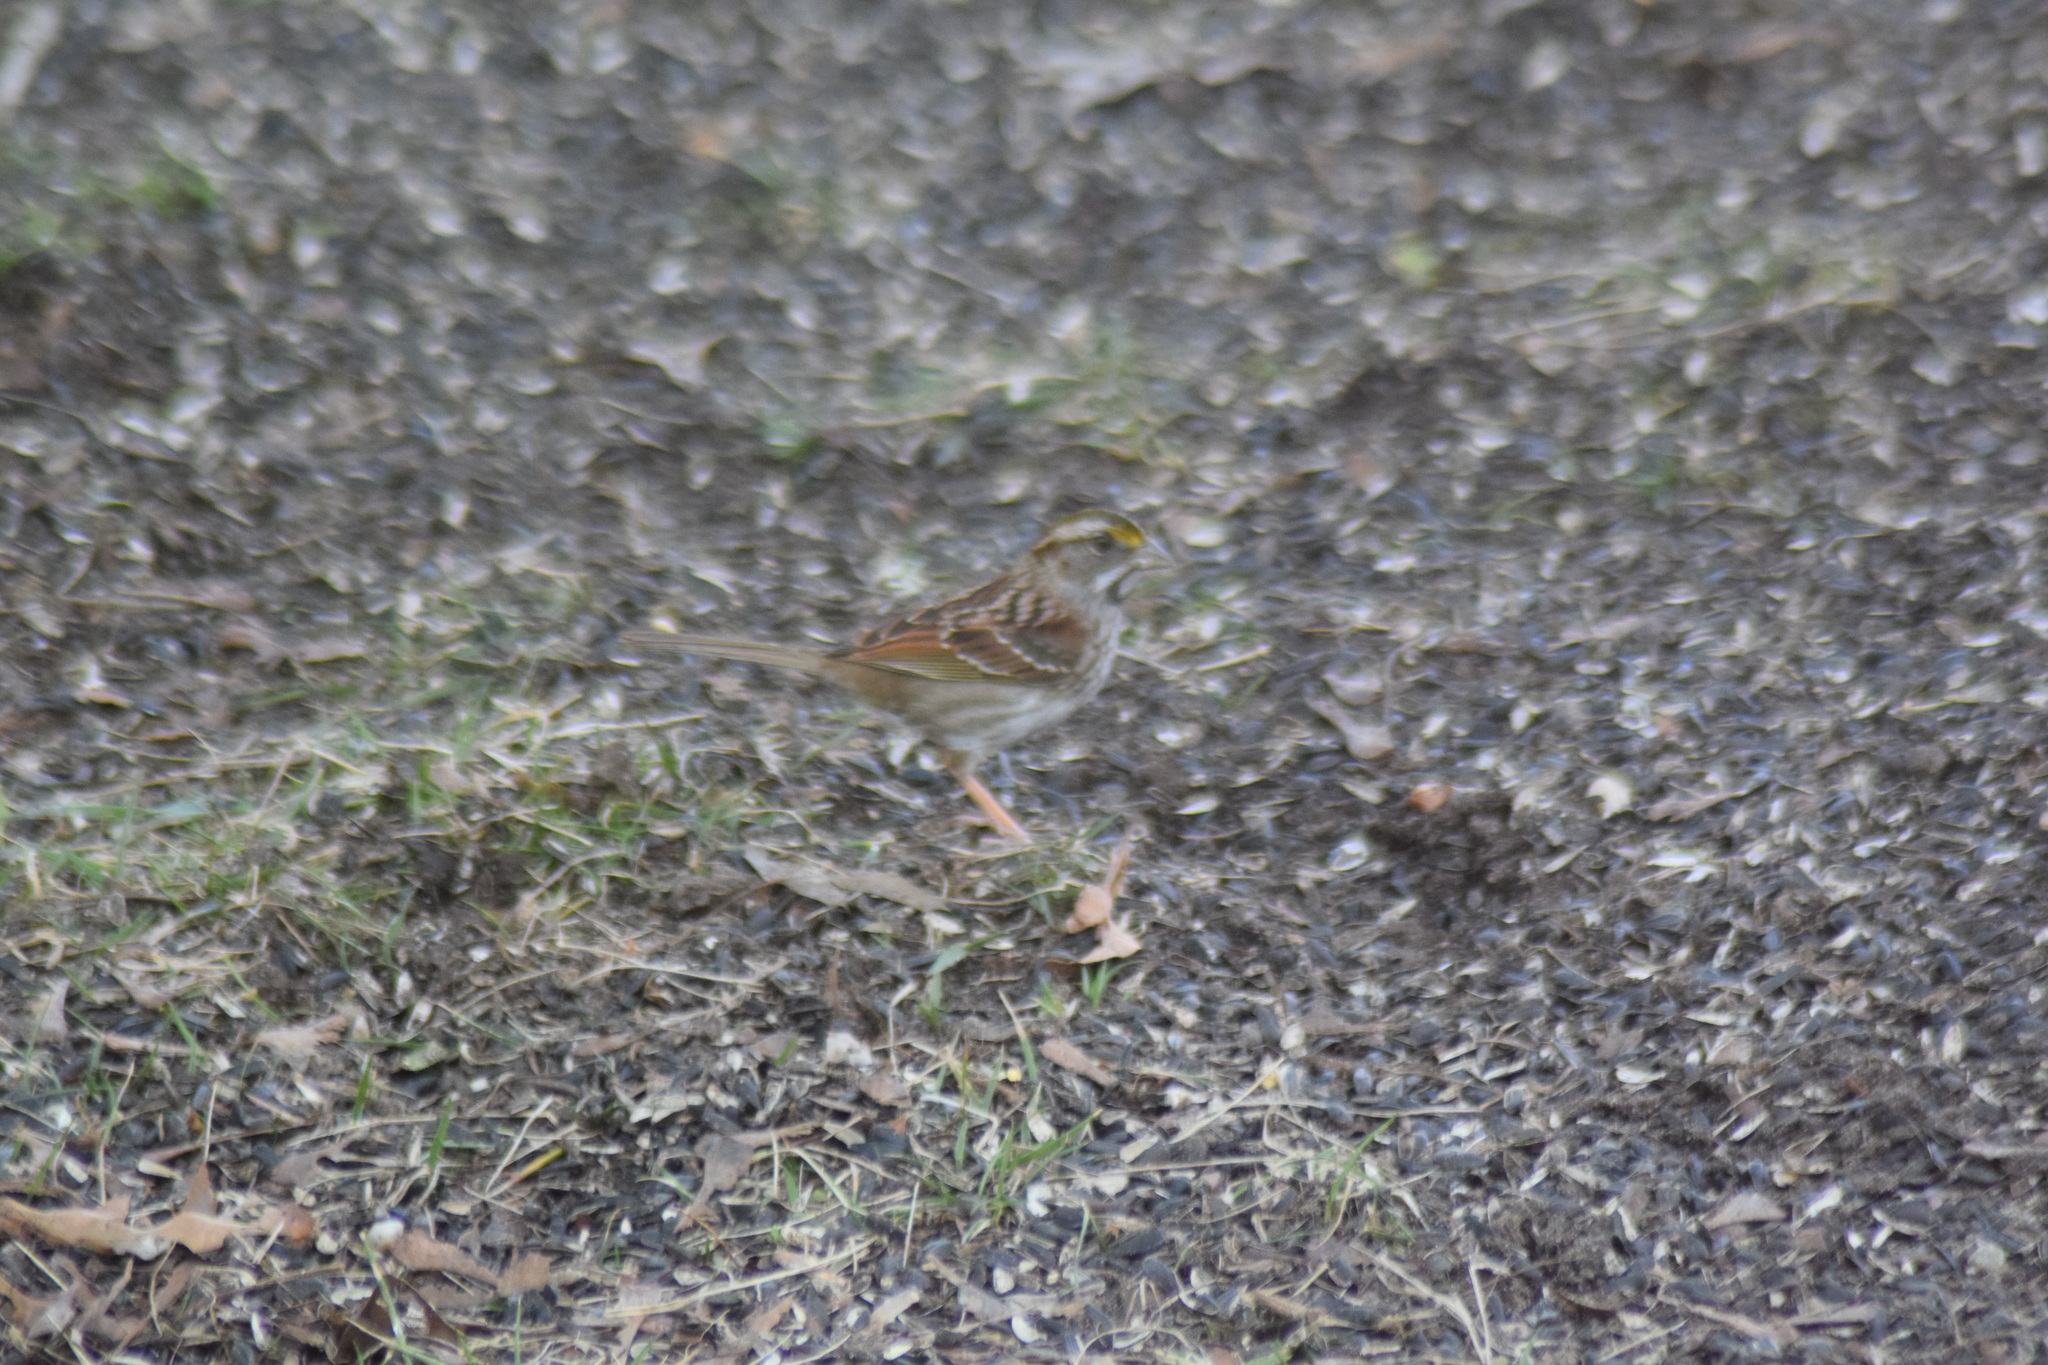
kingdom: Animalia
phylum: Chordata
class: Aves
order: Passeriformes
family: Passerellidae
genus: Zonotrichia
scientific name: Zonotrichia albicollis
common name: White-throated sparrow
